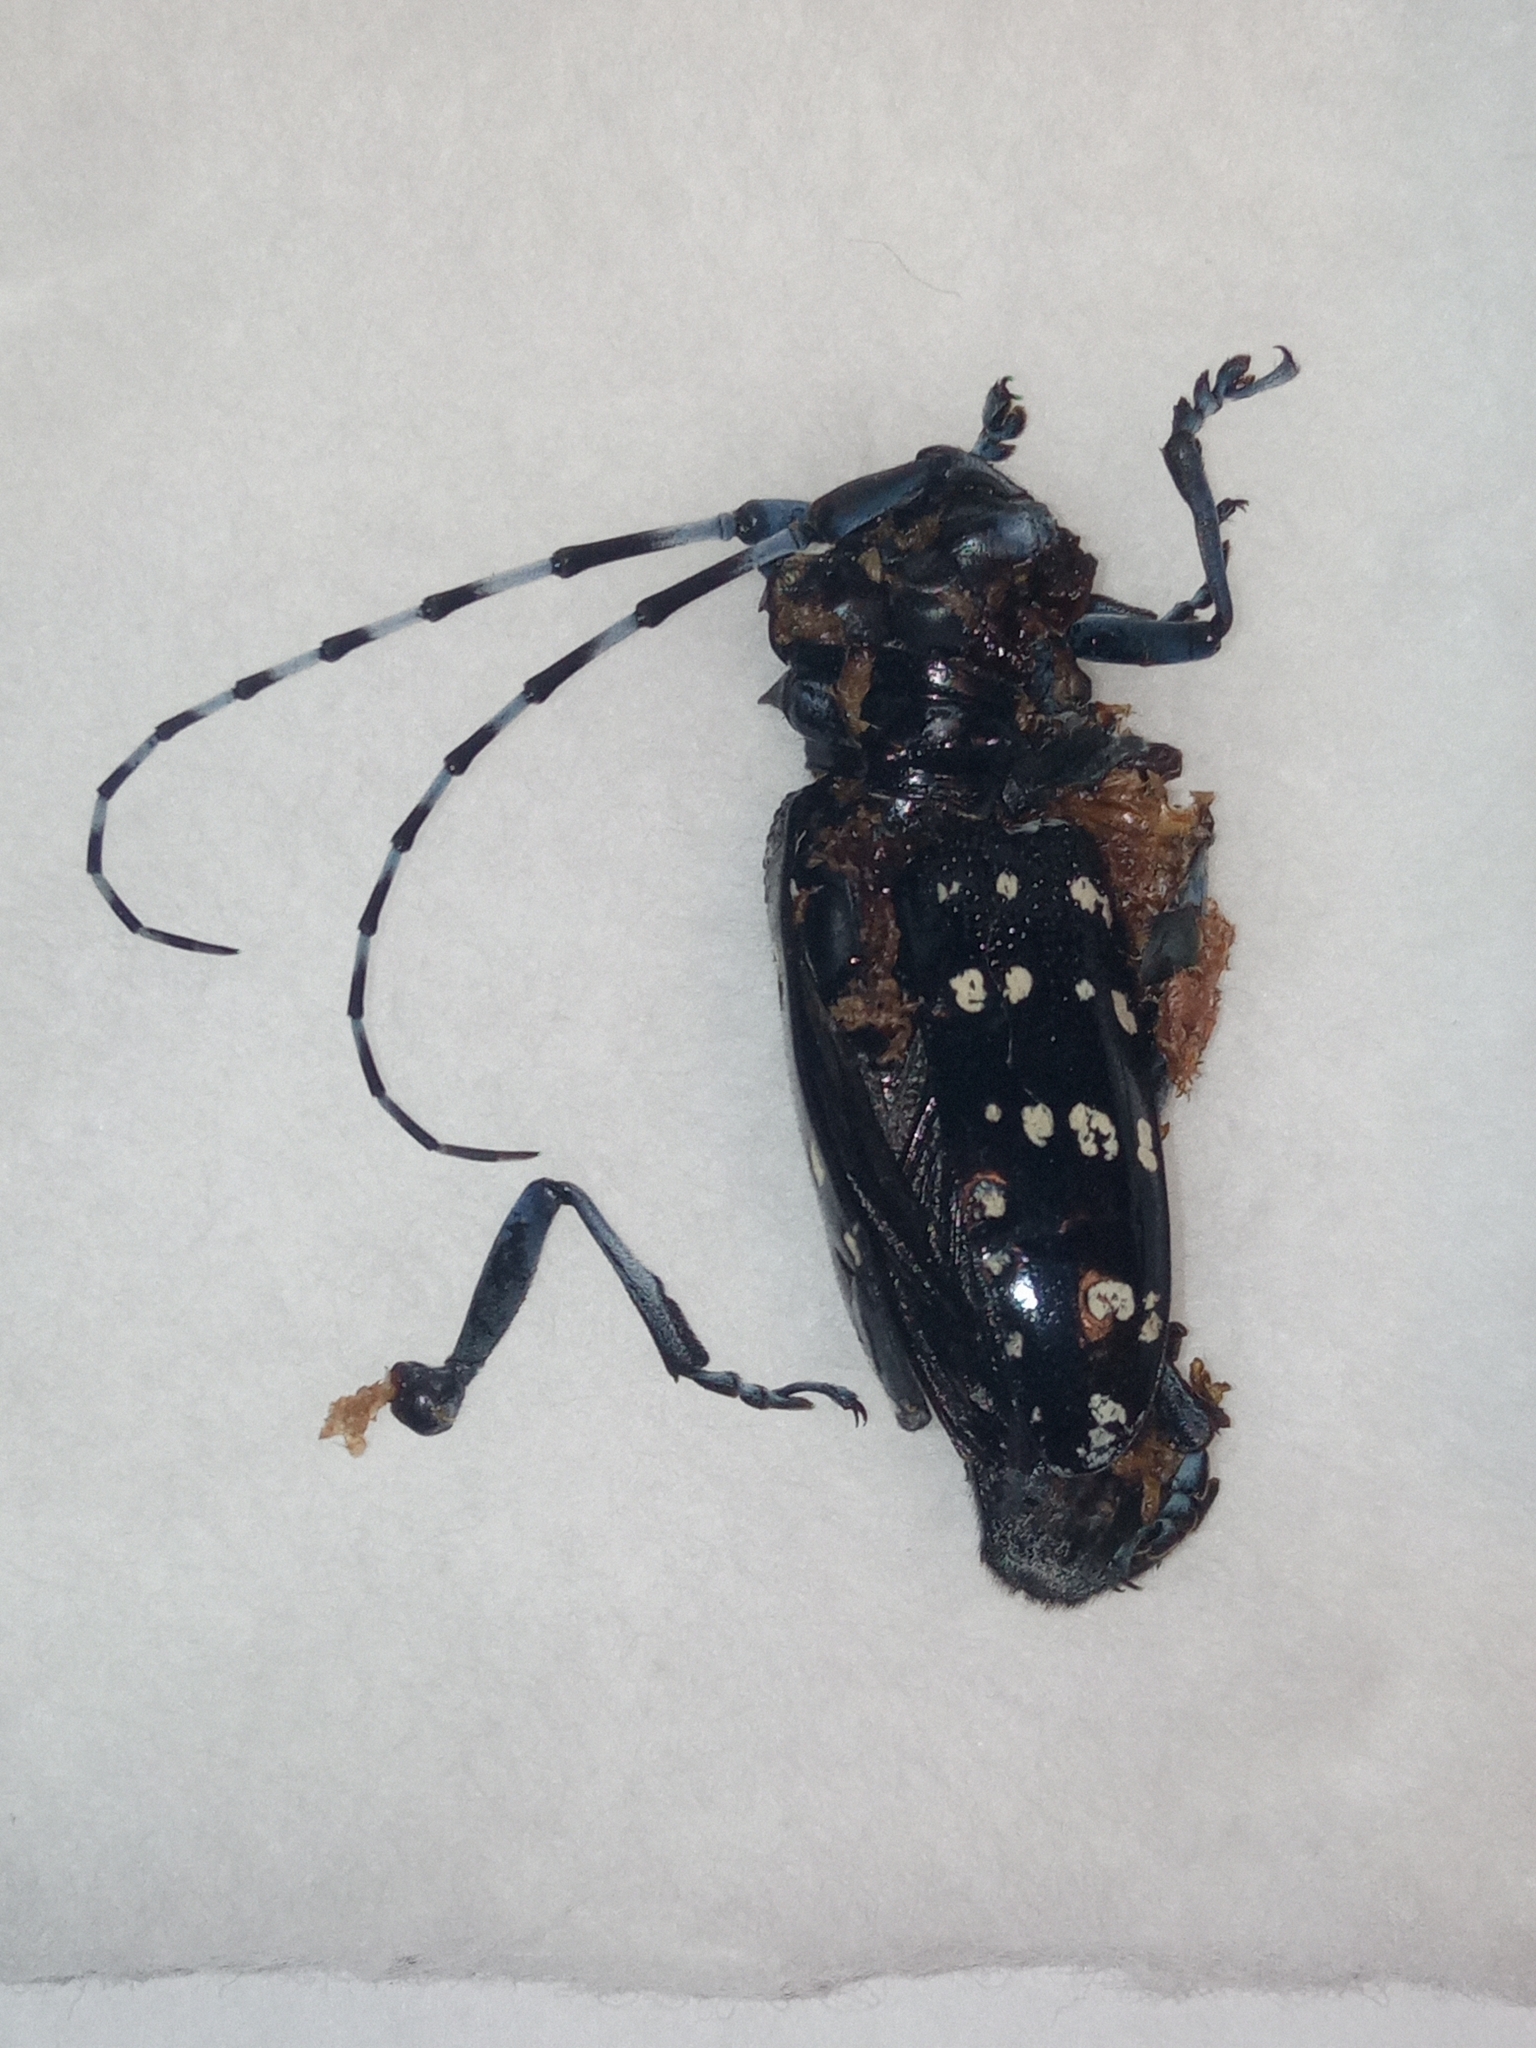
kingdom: Animalia
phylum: Arthropoda
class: Insecta
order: Coleoptera
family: Cerambycidae
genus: Anoplophora
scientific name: Anoplophora chinensis
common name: Citrus longhorned beetle
